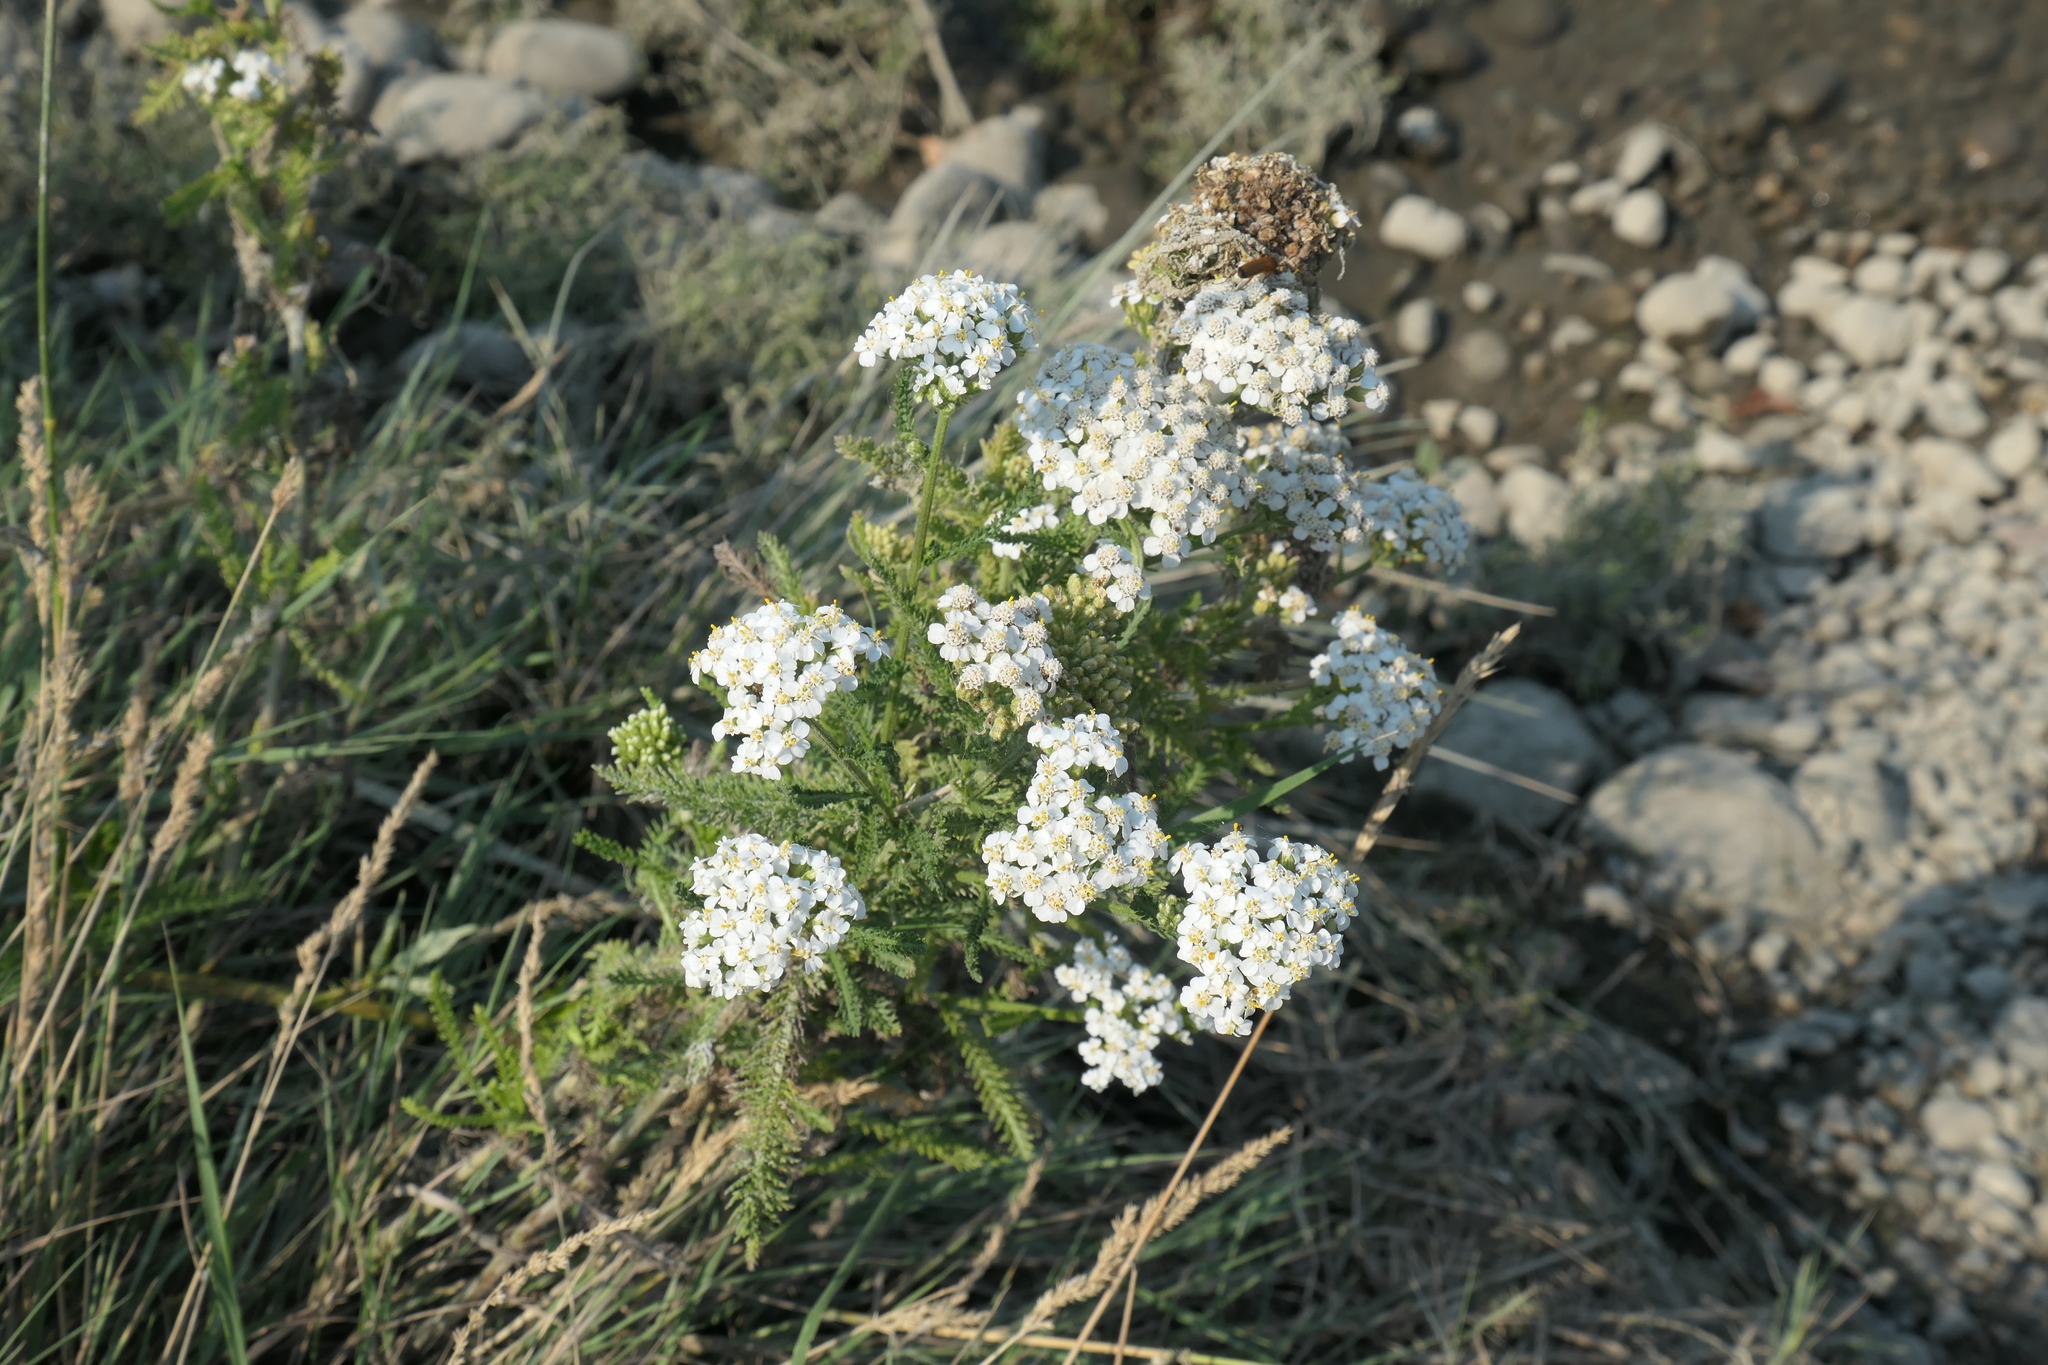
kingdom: Plantae
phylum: Tracheophyta
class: Magnoliopsida
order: Asterales
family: Asteraceae
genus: Achillea
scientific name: Achillea millefolium
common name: Yarrow
